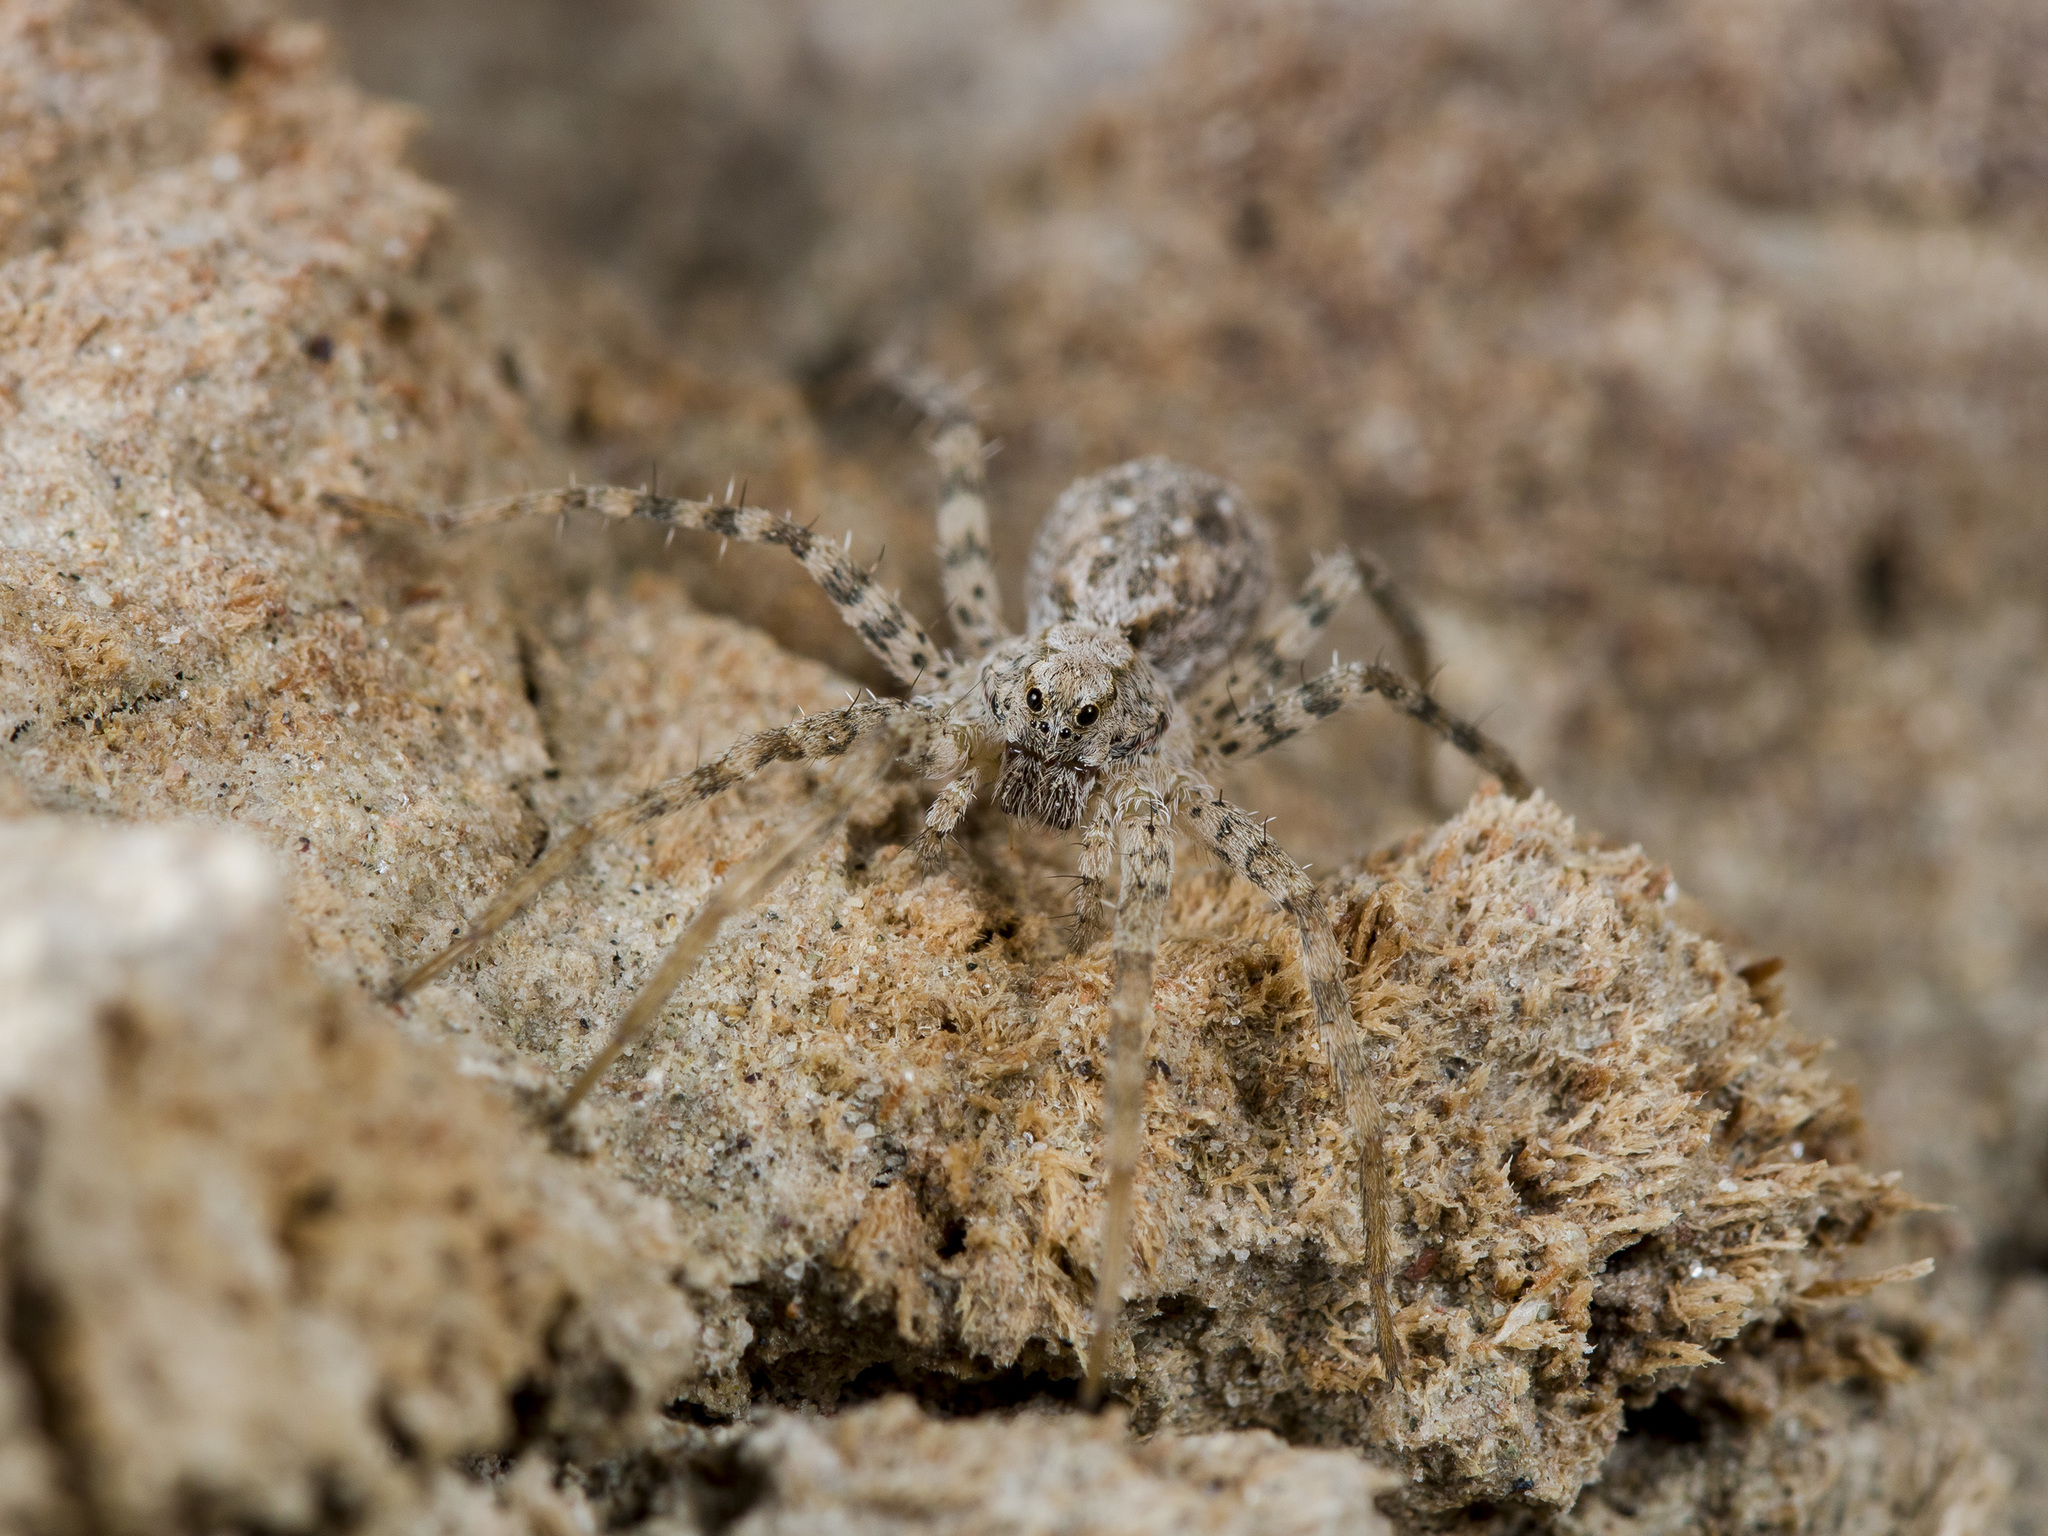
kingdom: Animalia
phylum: Arthropoda
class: Arachnida
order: Araneae
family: Lycosidae
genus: Evippa
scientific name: Evippa sjostedti
